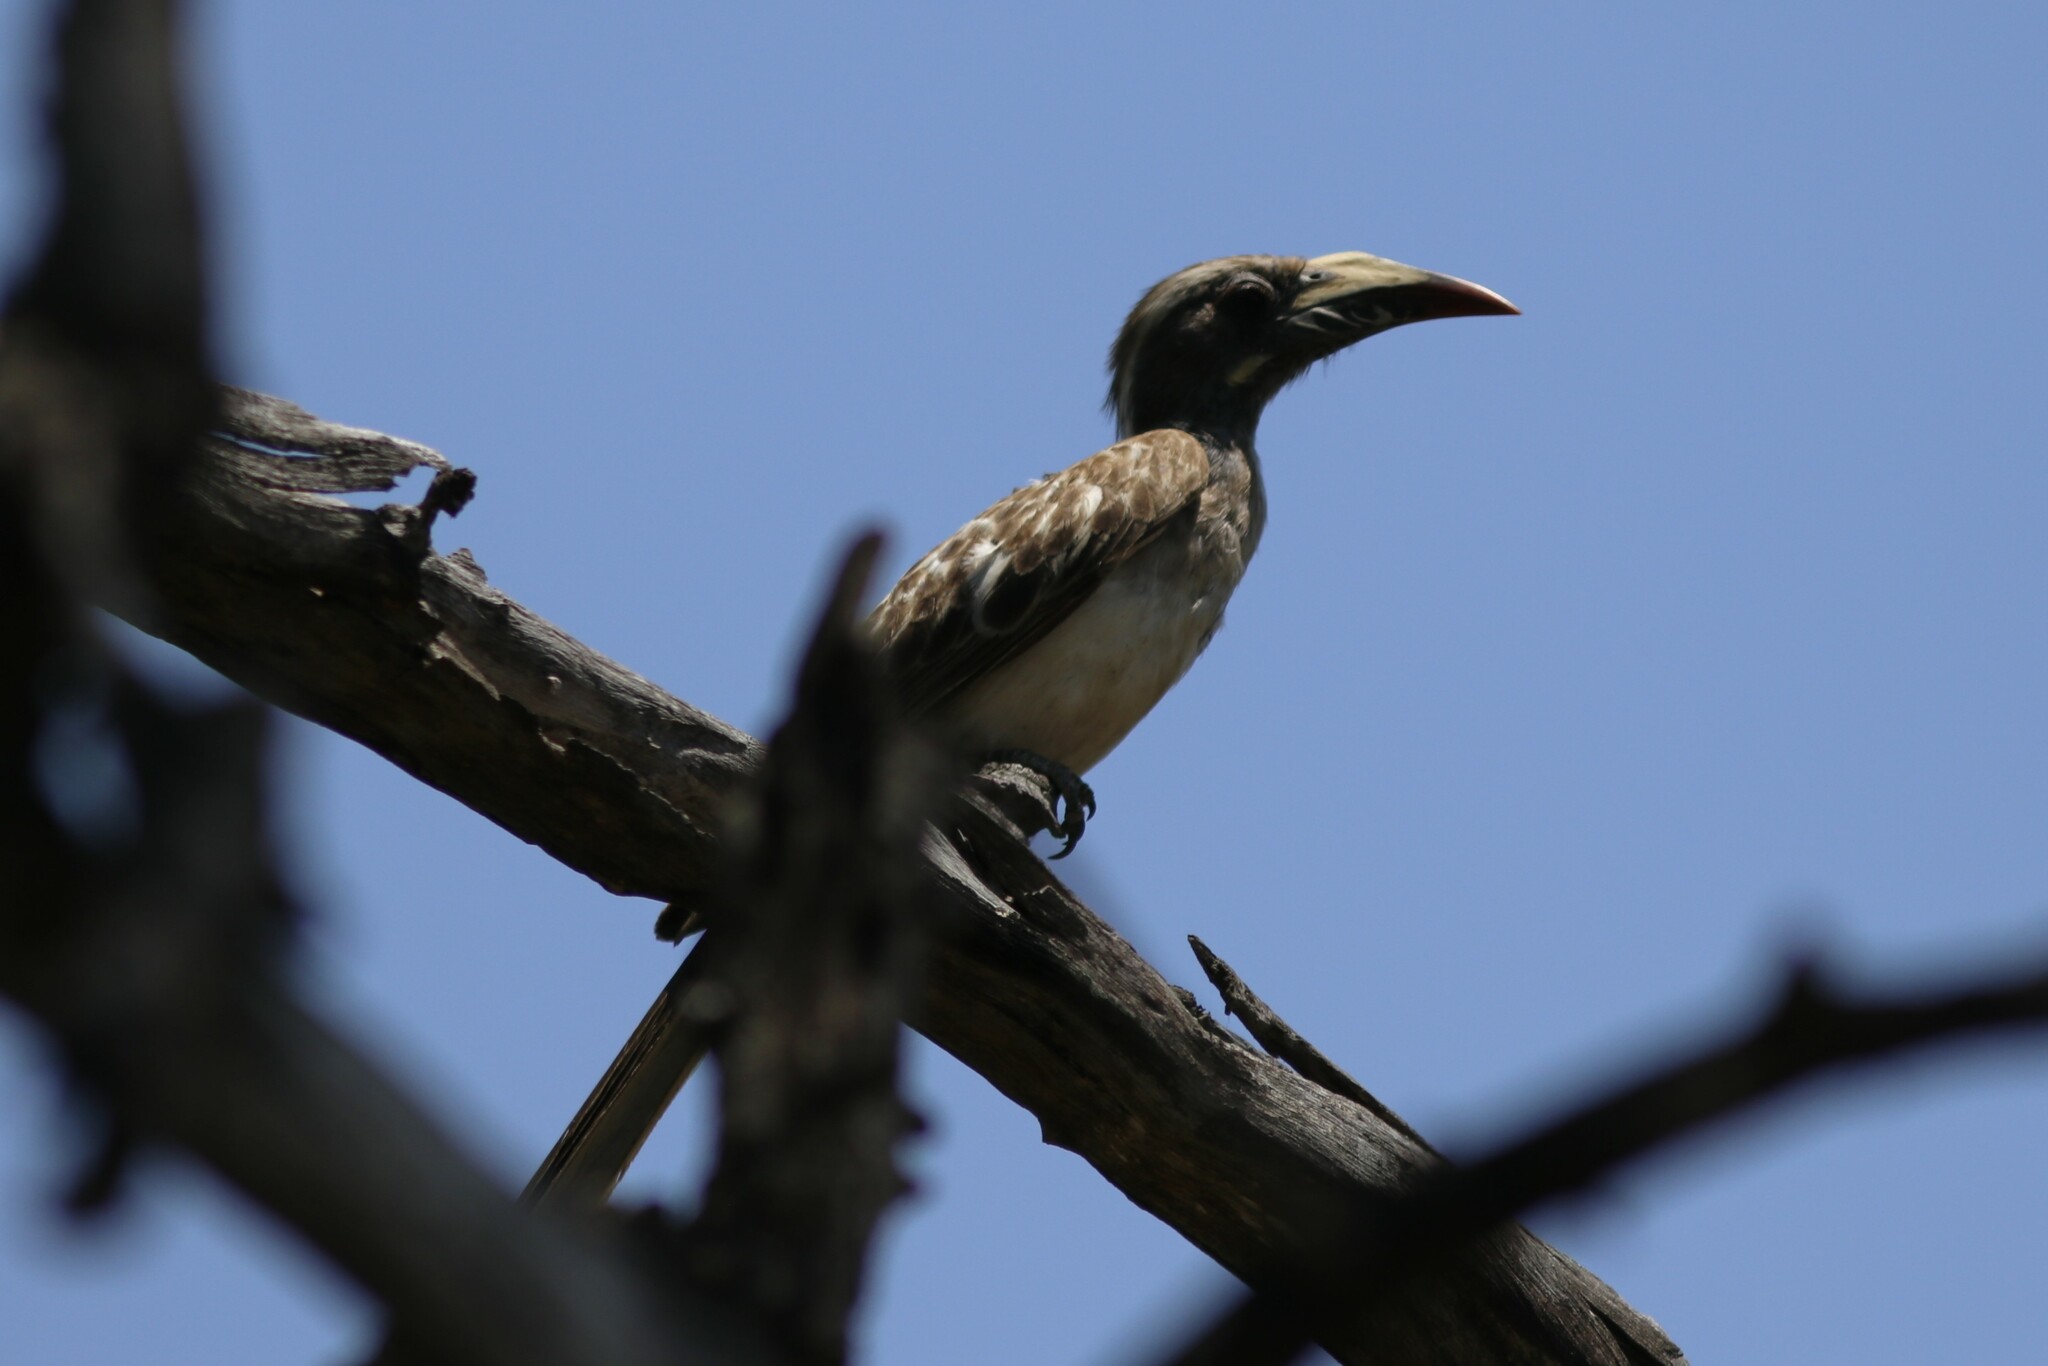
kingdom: Animalia
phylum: Chordata
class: Aves
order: Bucerotiformes
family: Bucerotidae
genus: Lophoceros
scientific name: Lophoceros nasutus
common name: African grey hornbill
